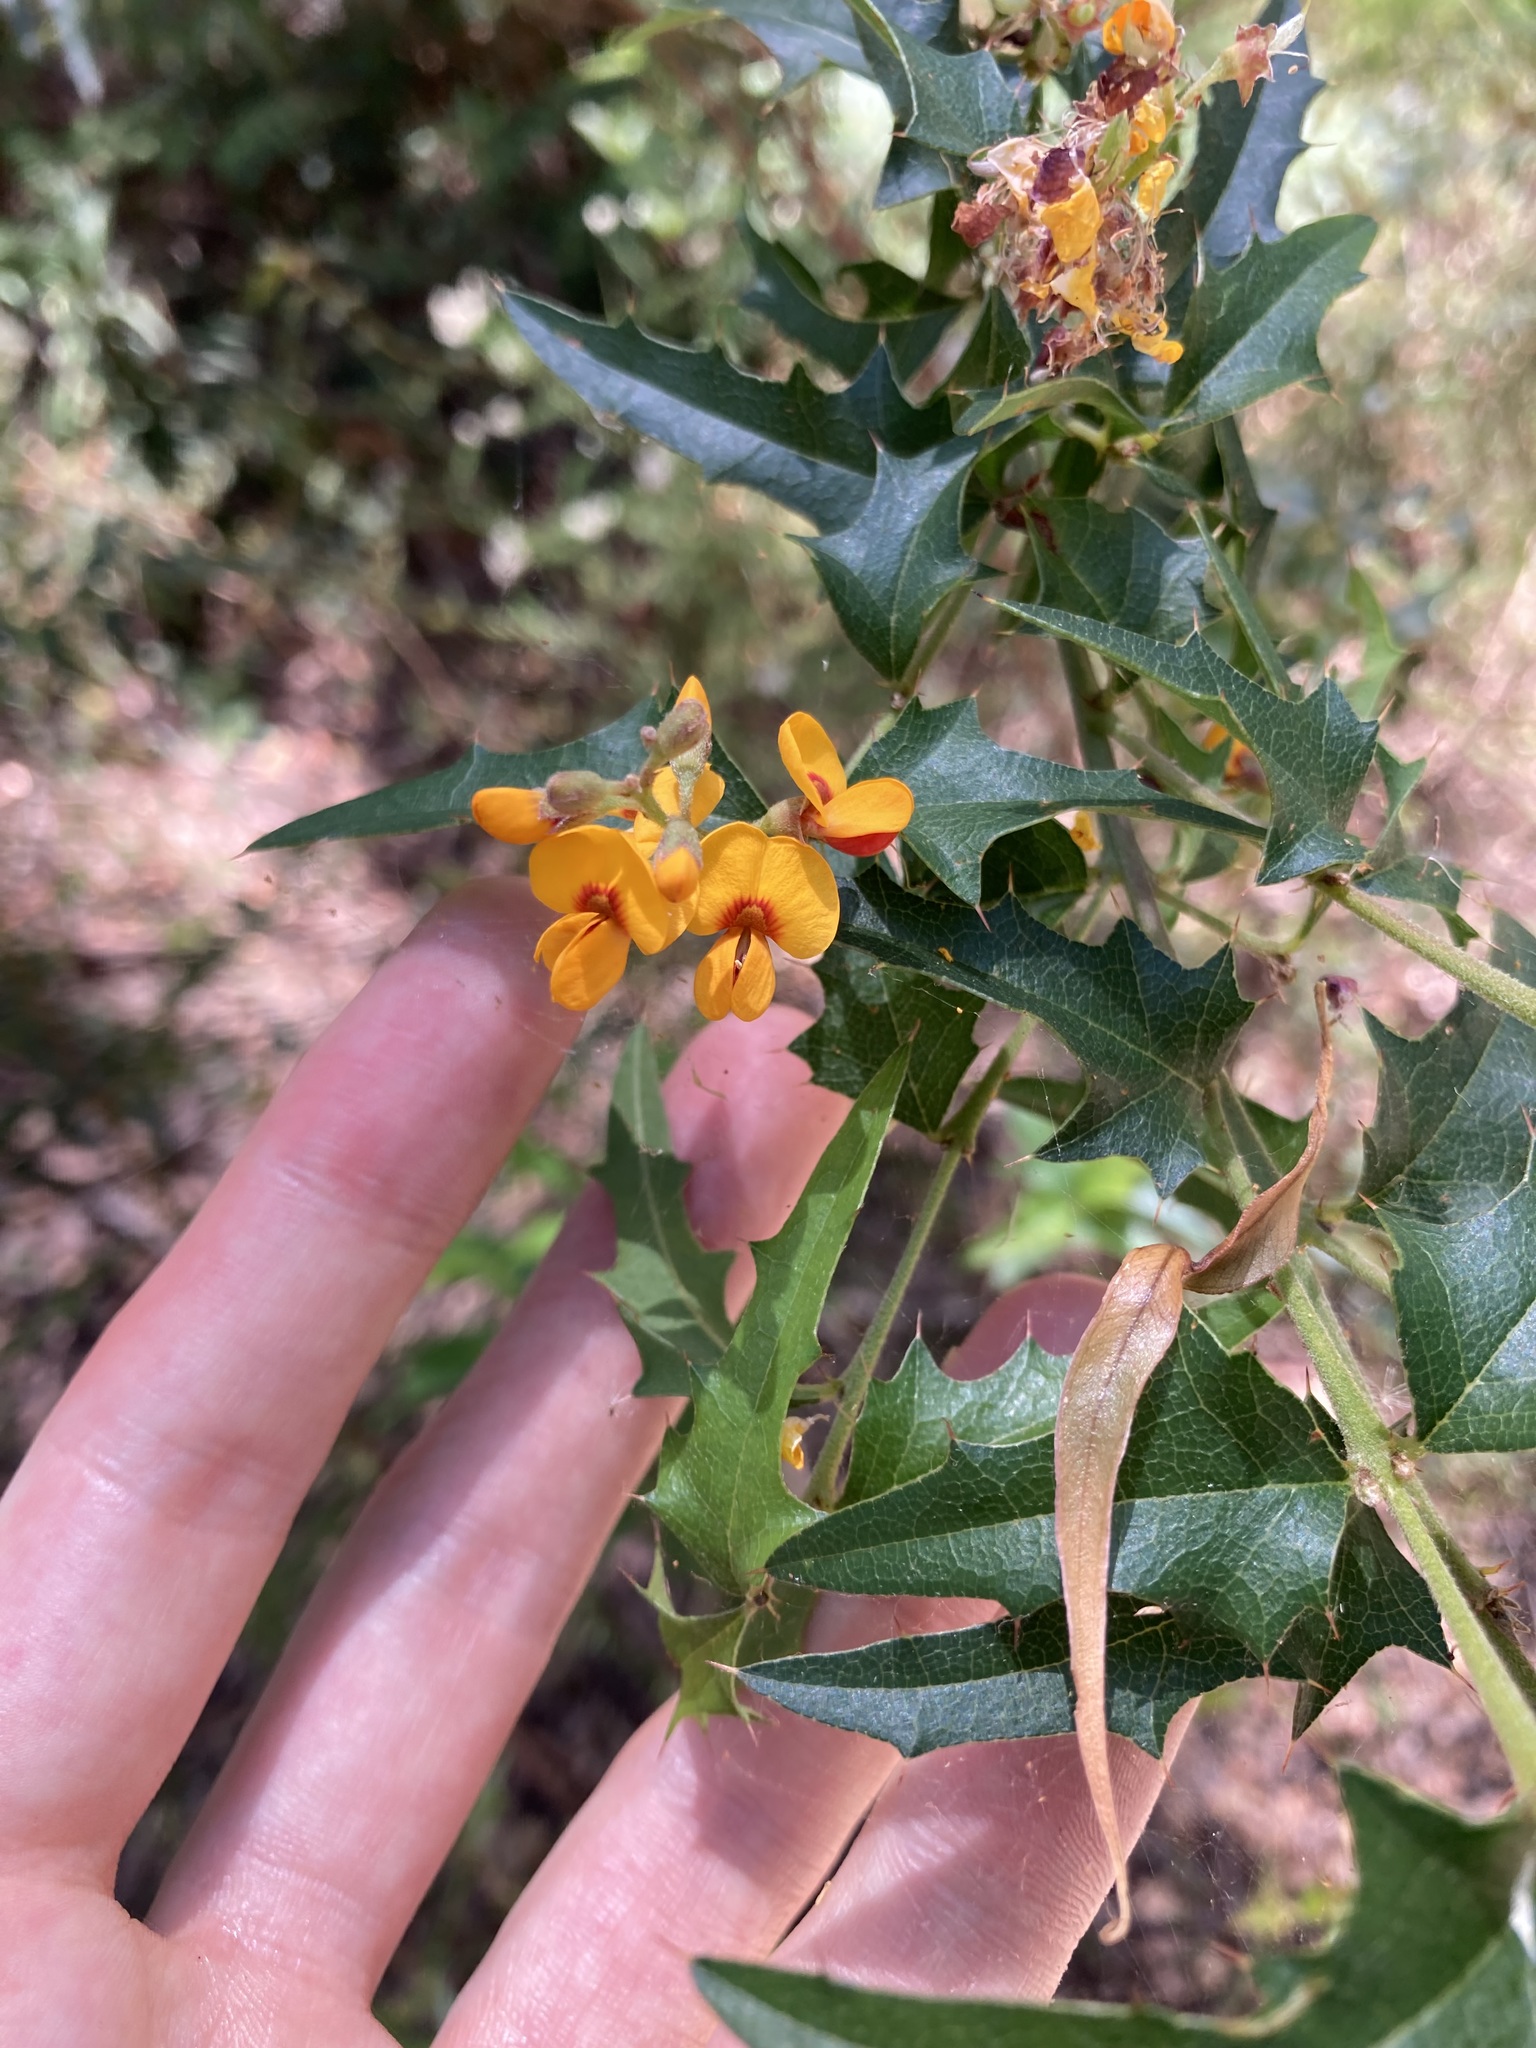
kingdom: Plantae
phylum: Tracheophyta
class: Magnoliopsida
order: Fabales
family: Fabaceae
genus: Podolobium
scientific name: Podolobium ilicifolium
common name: Native holly
